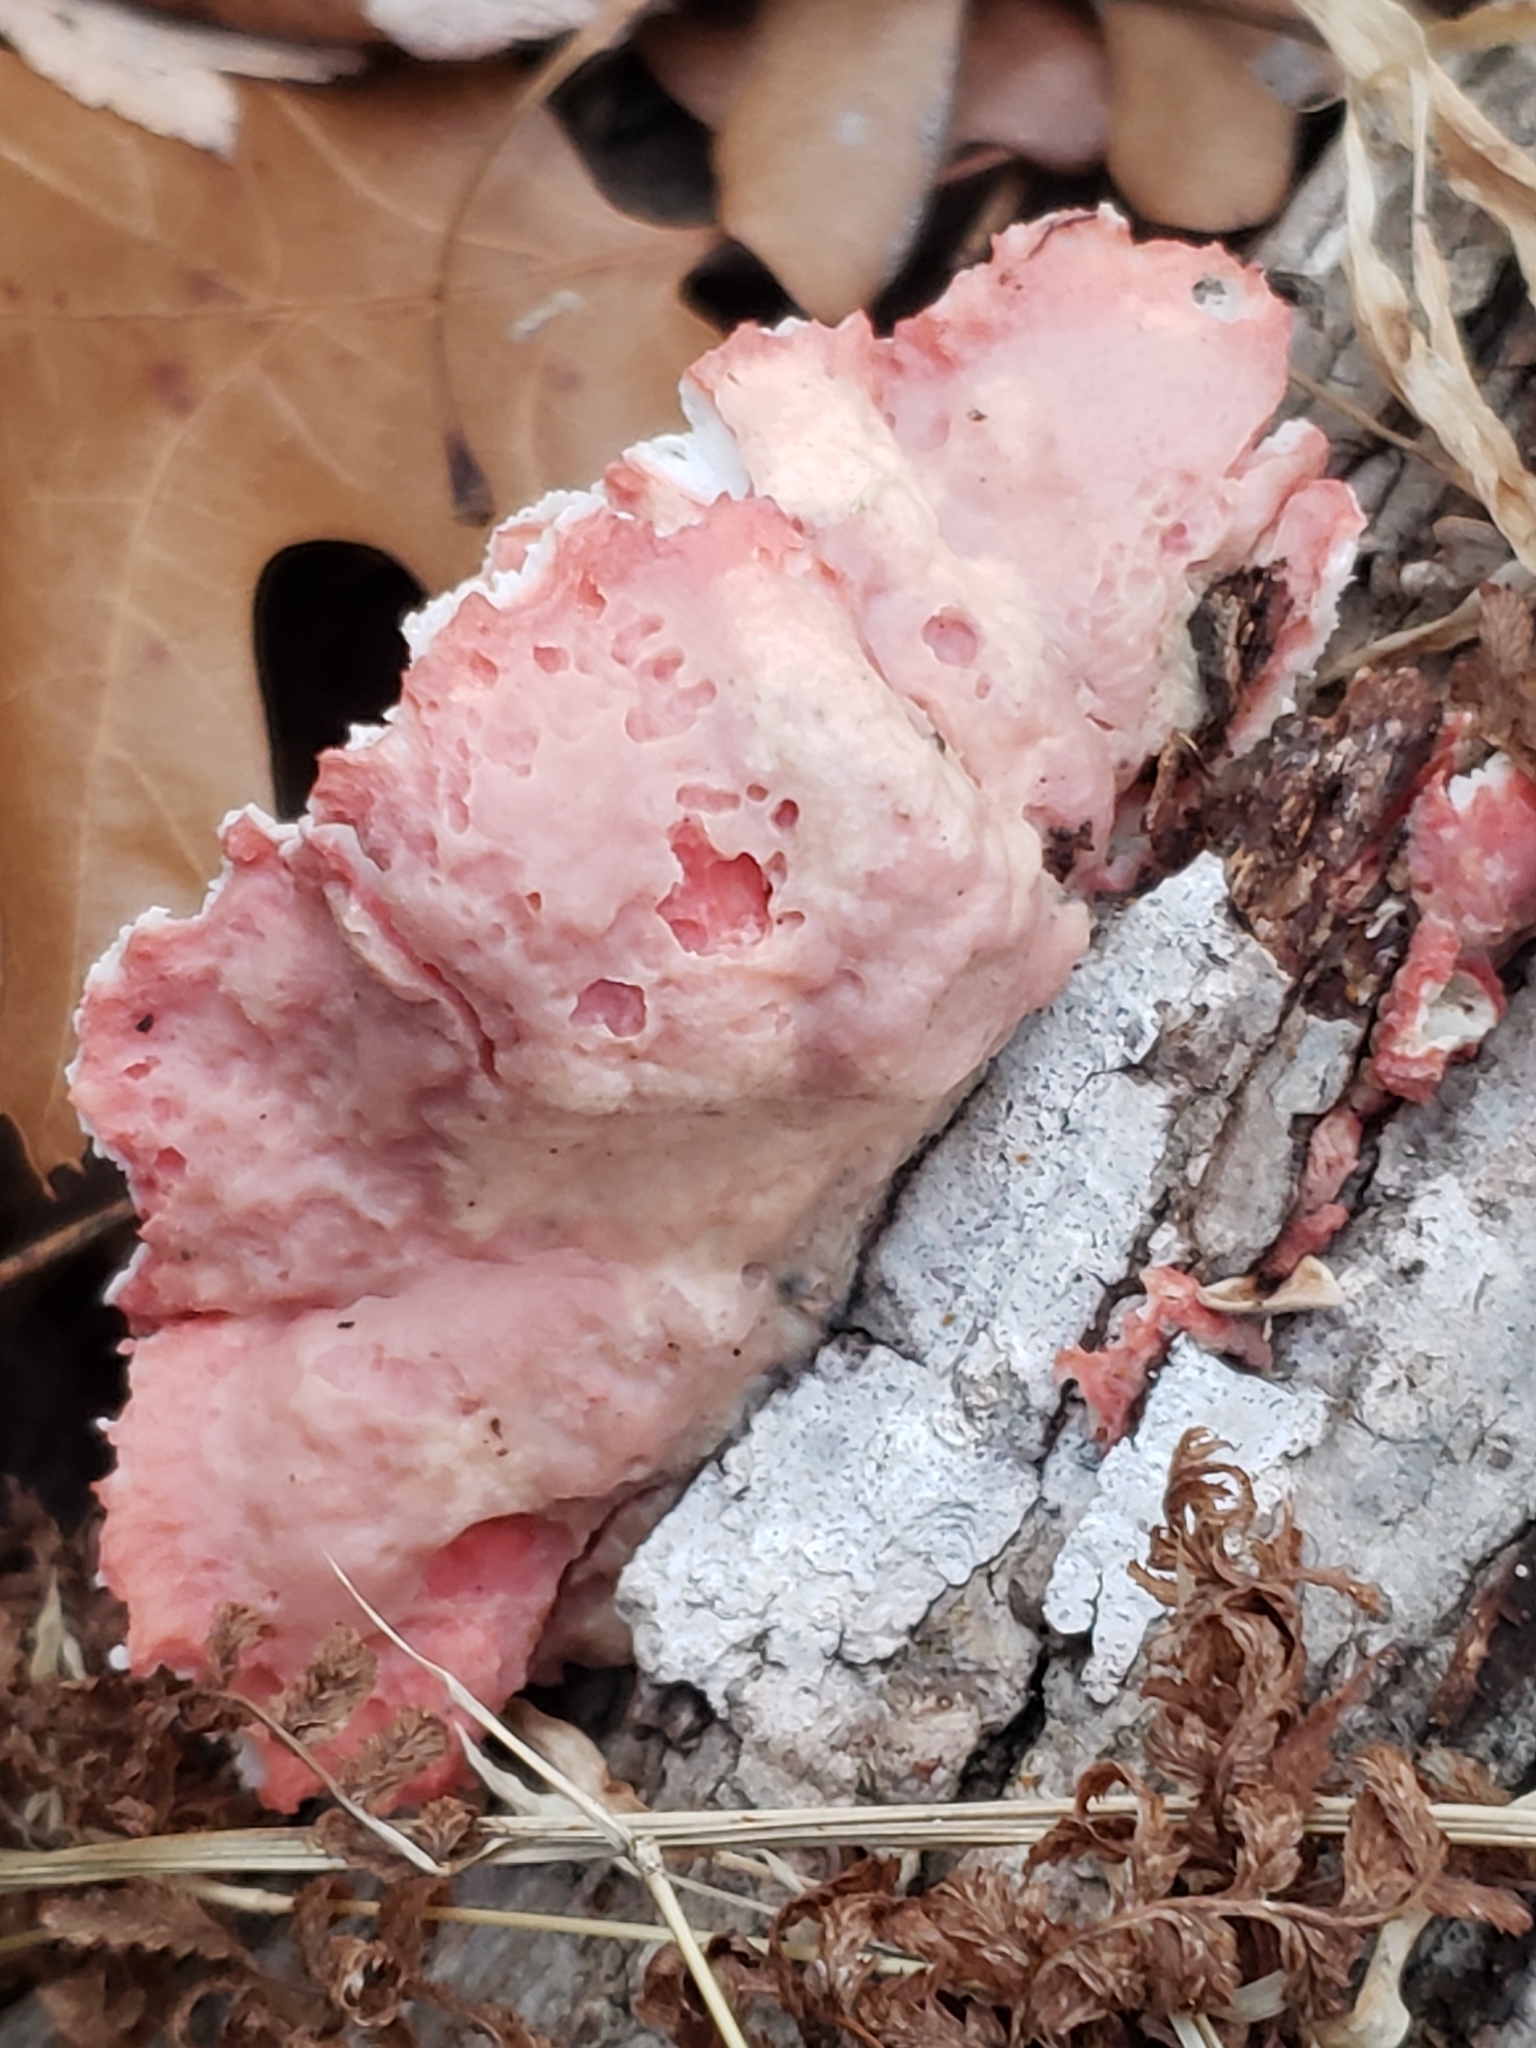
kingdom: Fungi
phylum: Basidiomycota
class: Agaricomycetes
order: Polyporales
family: Irpicaceae
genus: Byssomerulius
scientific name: Byssomerulius incarnatus
